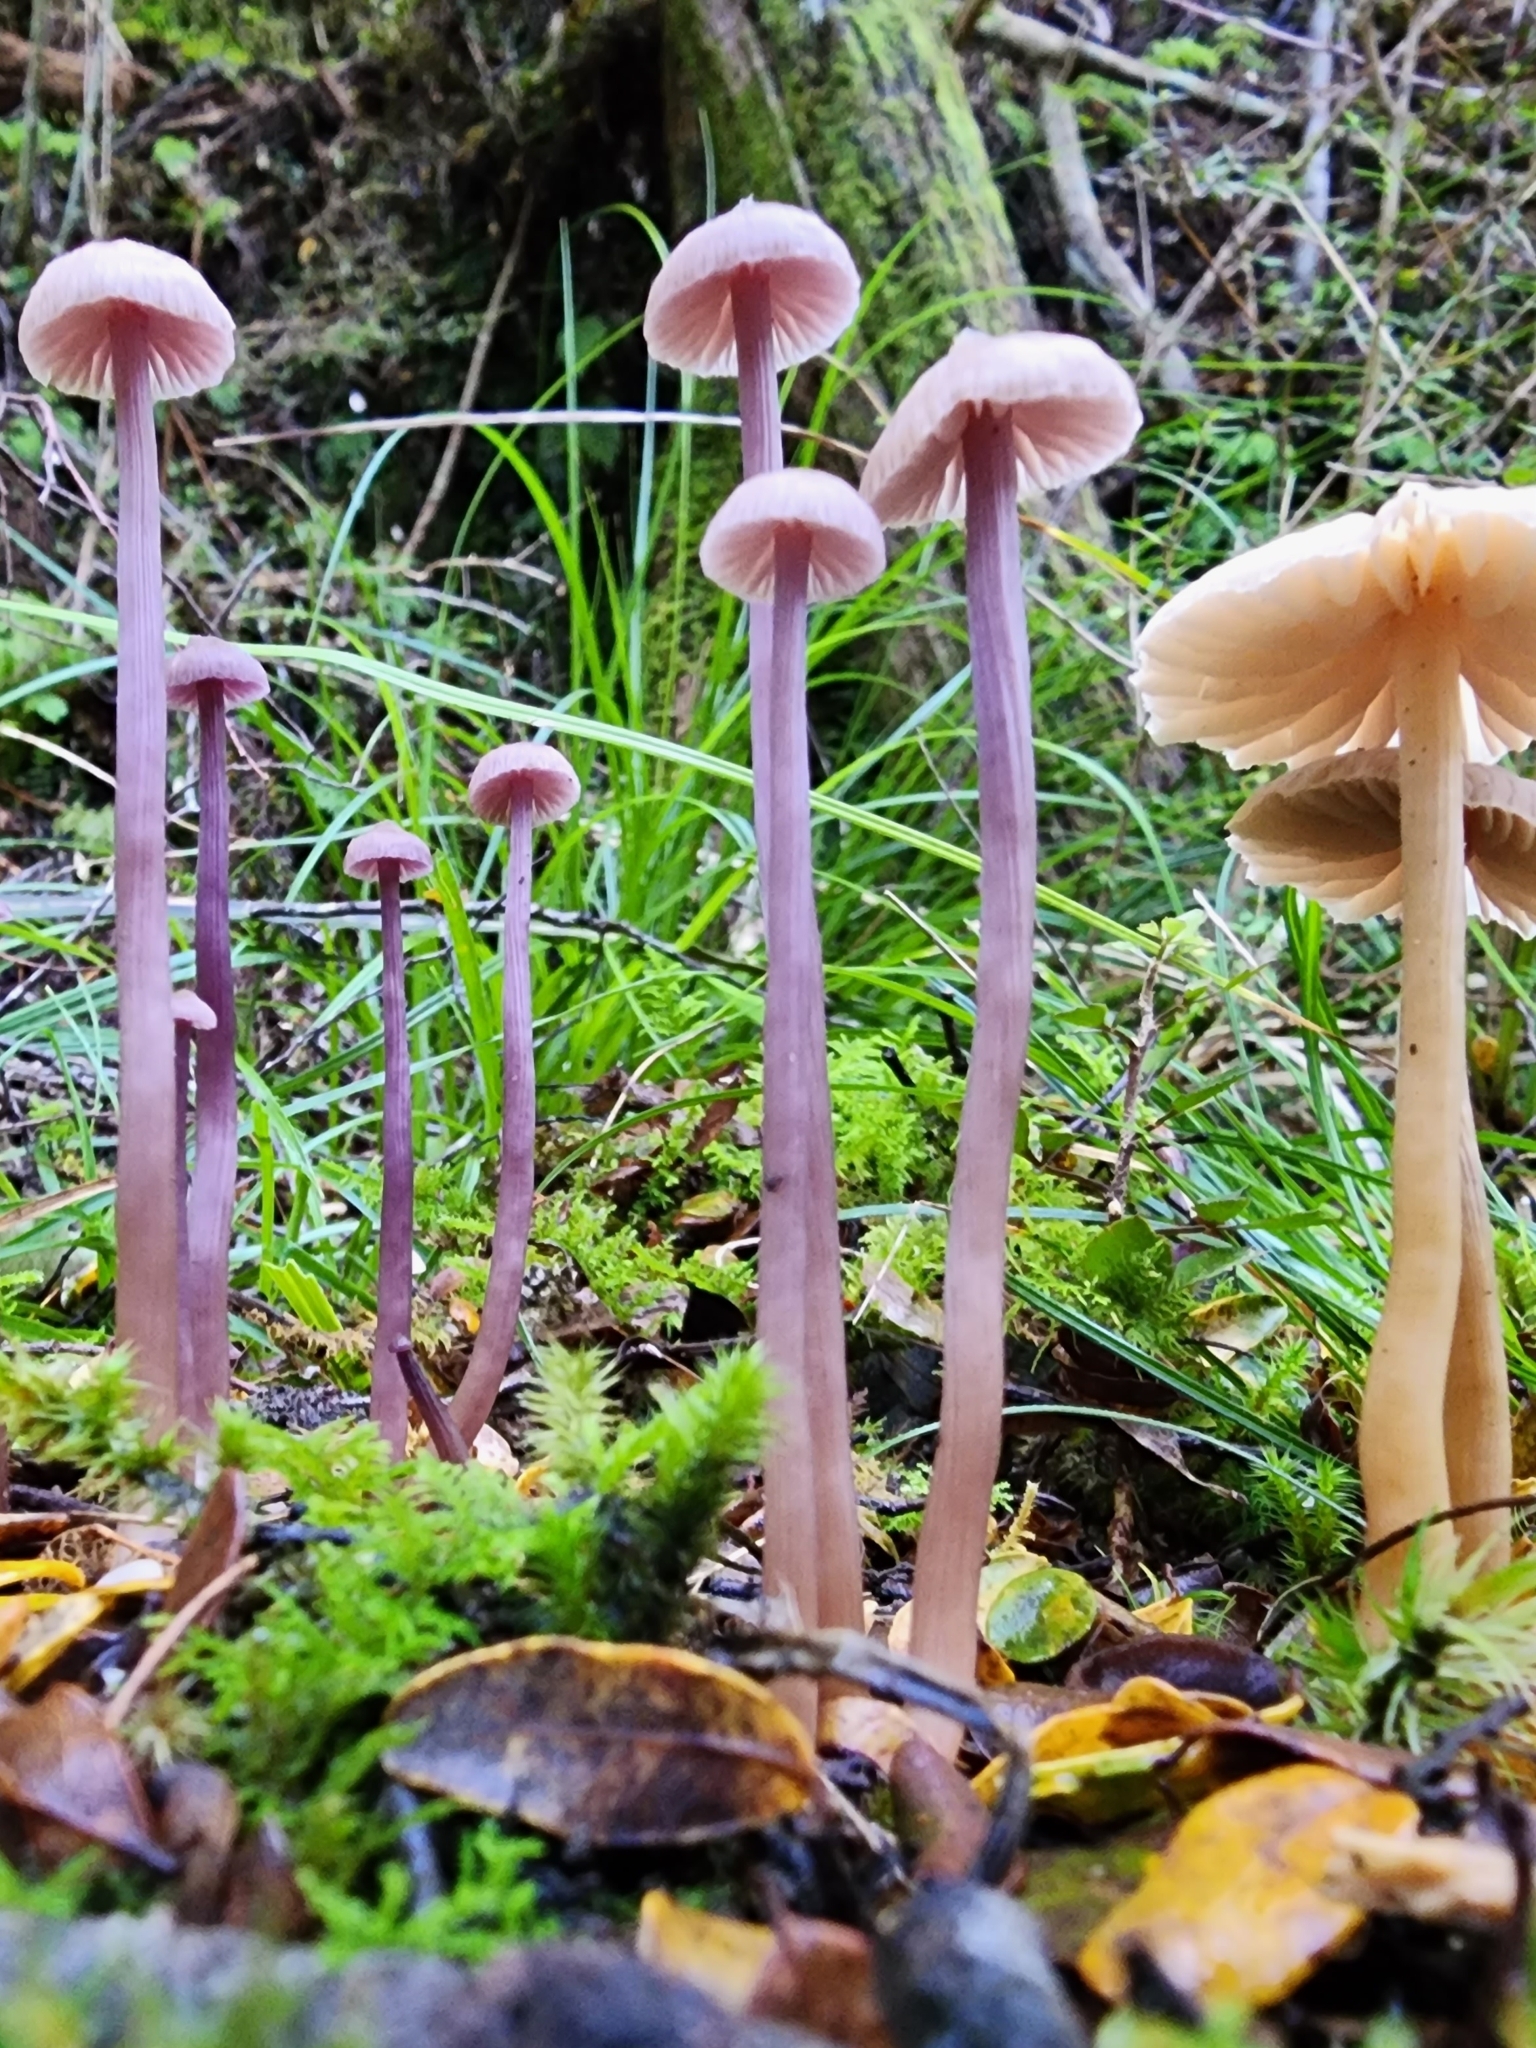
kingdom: Fungi
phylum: Basidiomycota
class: Agaricomycetes
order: Agaricales
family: Hydnangiaceae
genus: Laccaria
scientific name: Laccaria masoniae
